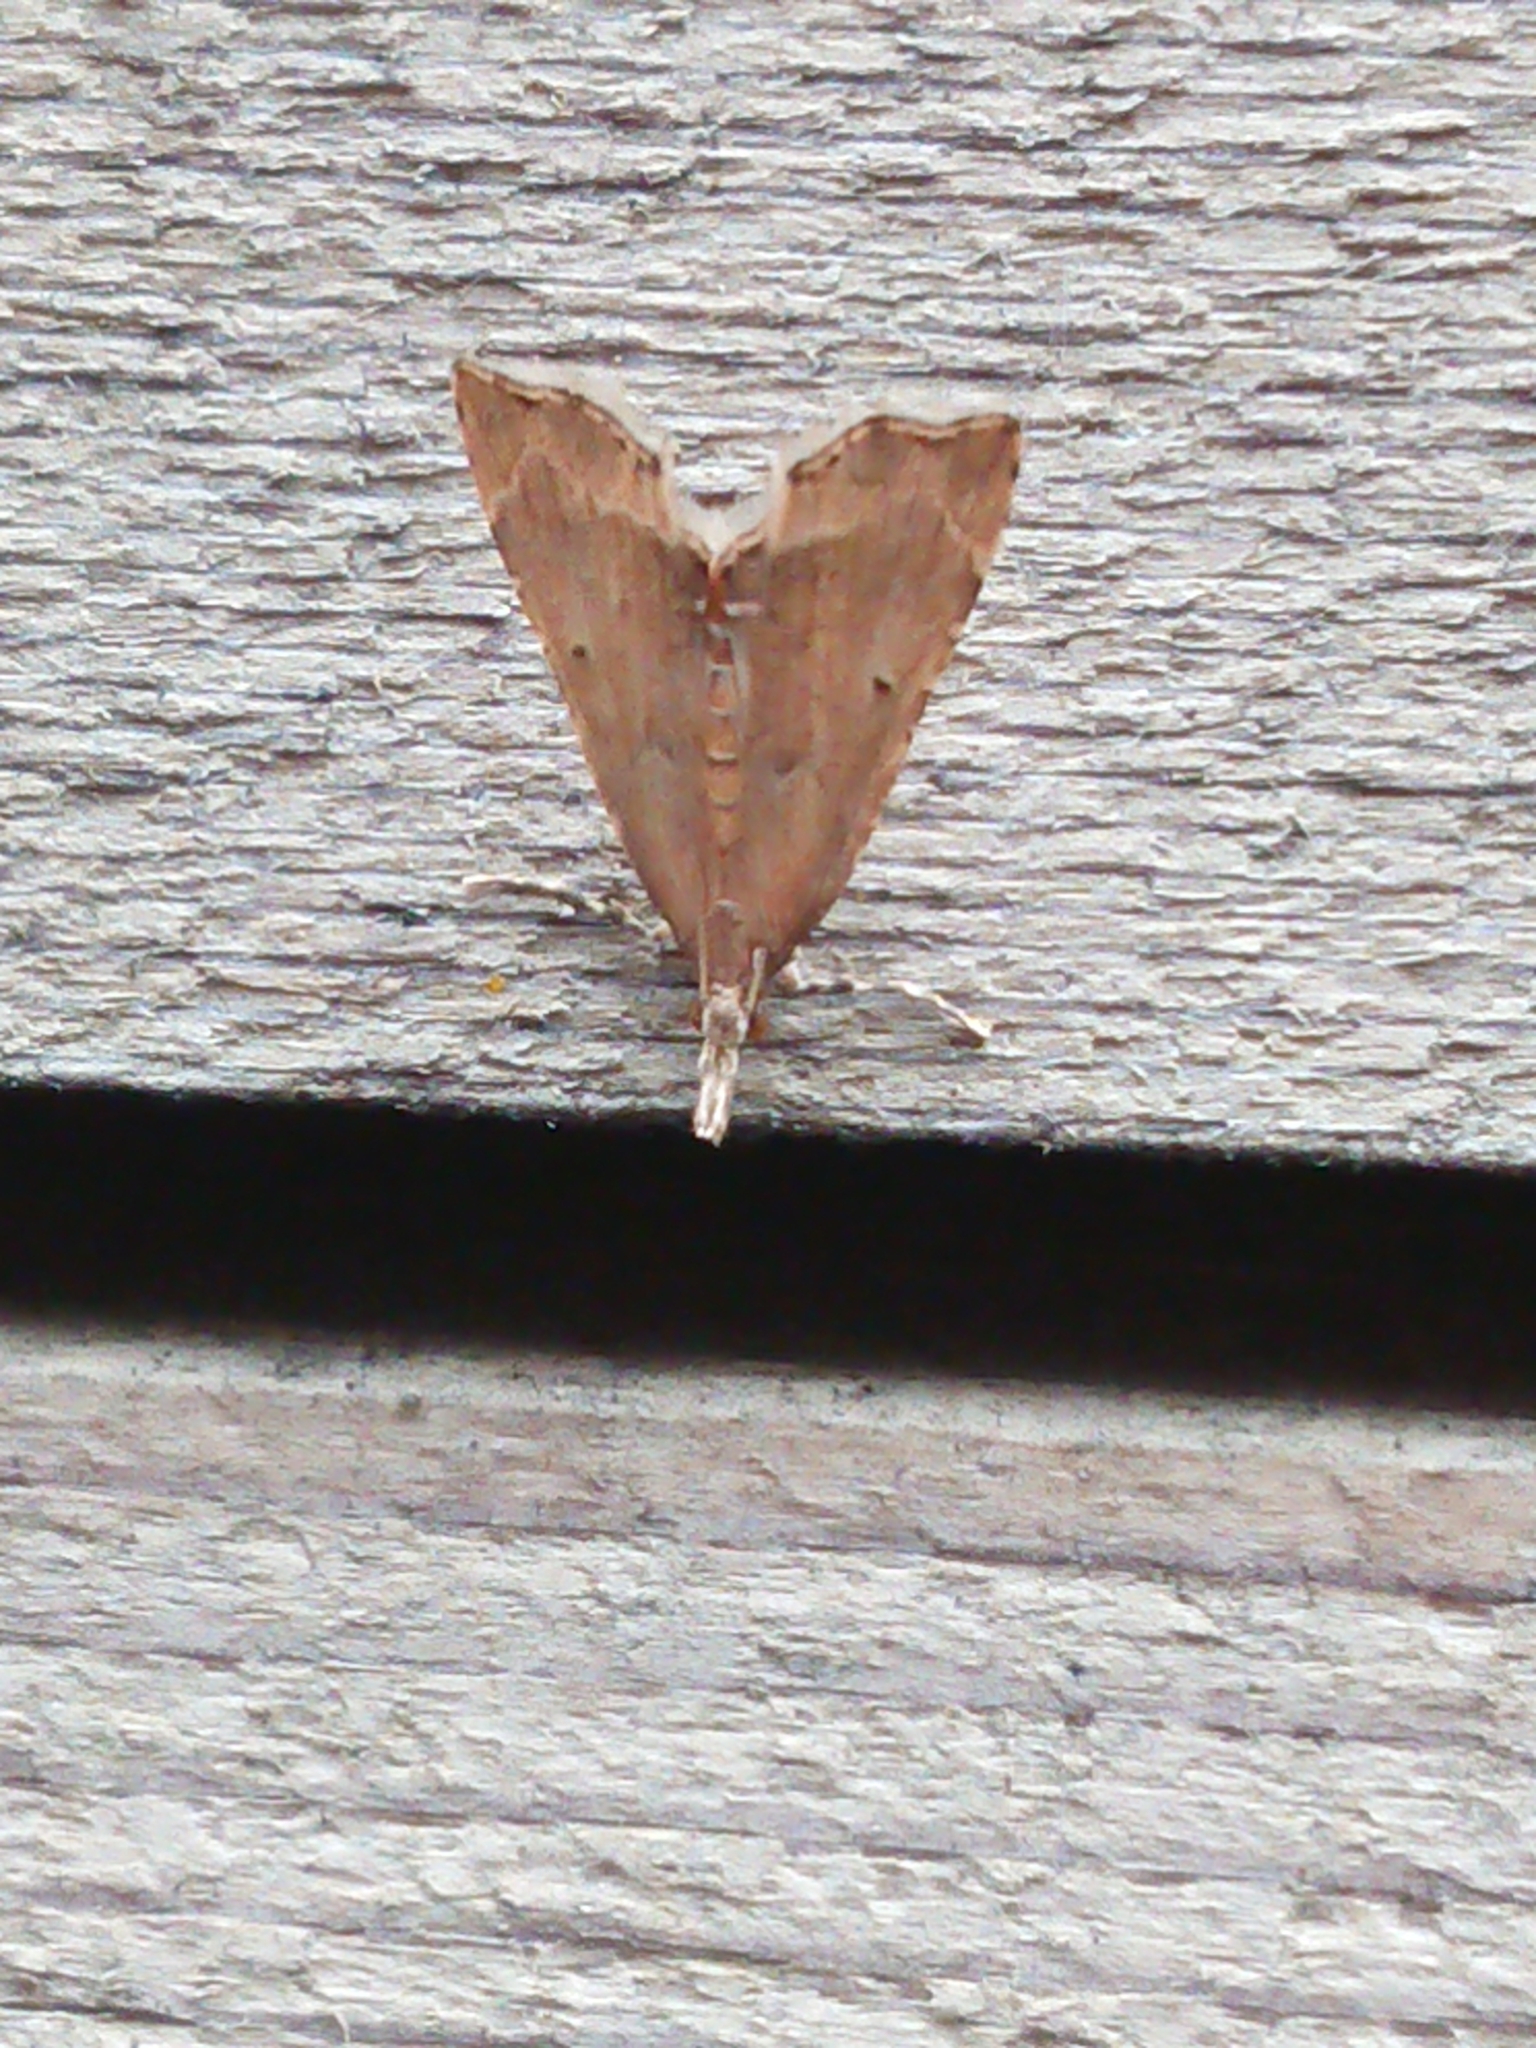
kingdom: Animalia
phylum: Arthropoda
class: Insecta
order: Lepidoptera
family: Crambidae
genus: Diplopseustis
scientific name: Diplopseustis perieresalis
